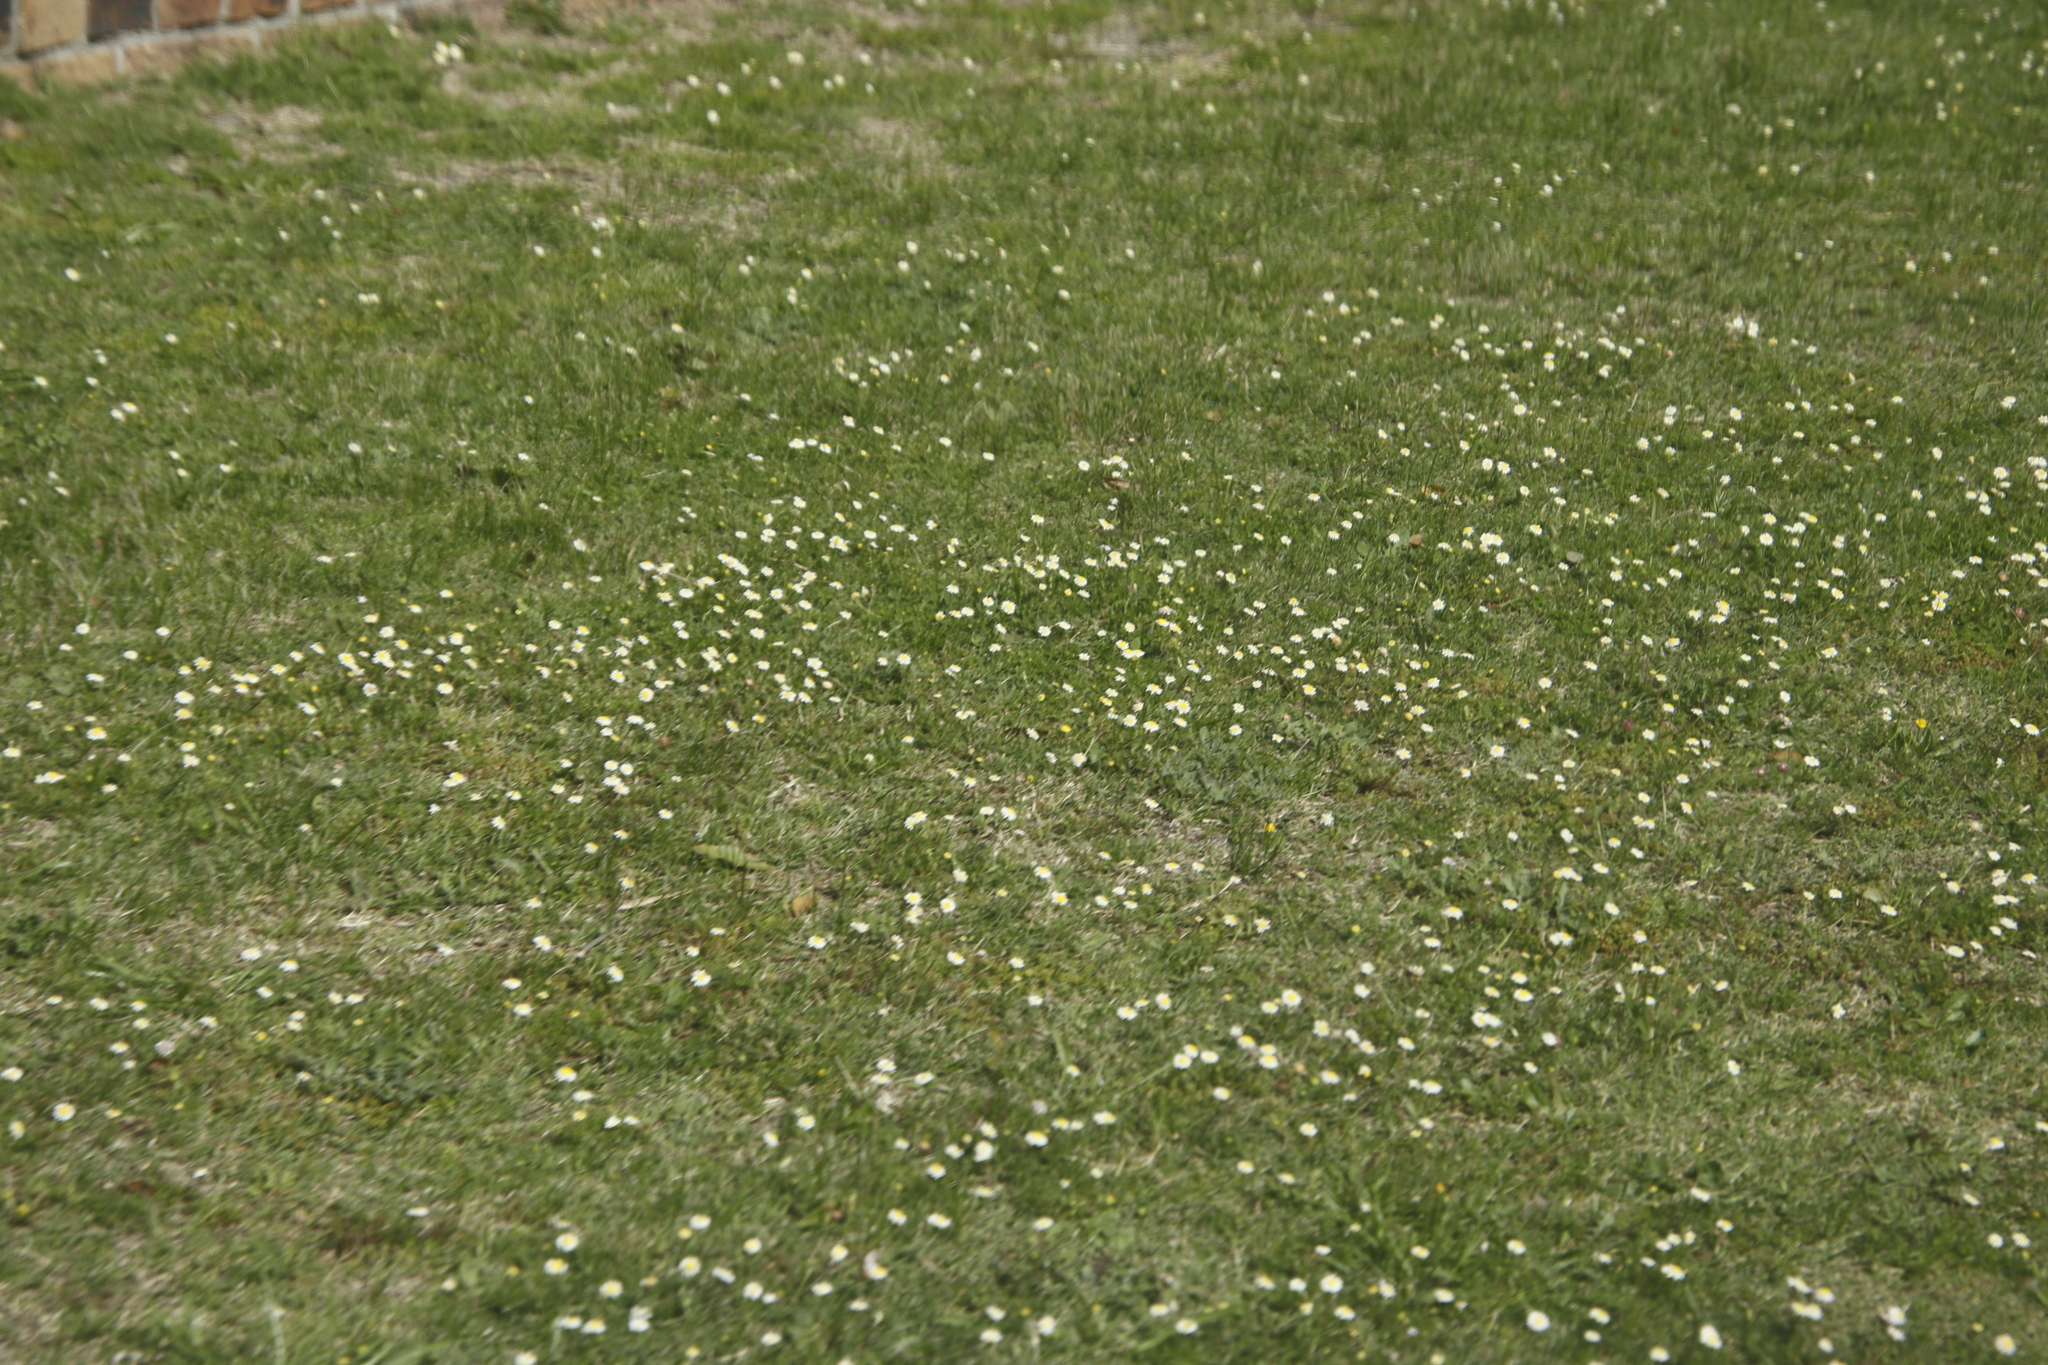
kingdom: Plantae
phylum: Tracheophyta
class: Magnoliopsida
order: Asterales
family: Asteraceae
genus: Cotula
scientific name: Cotula turbinata
